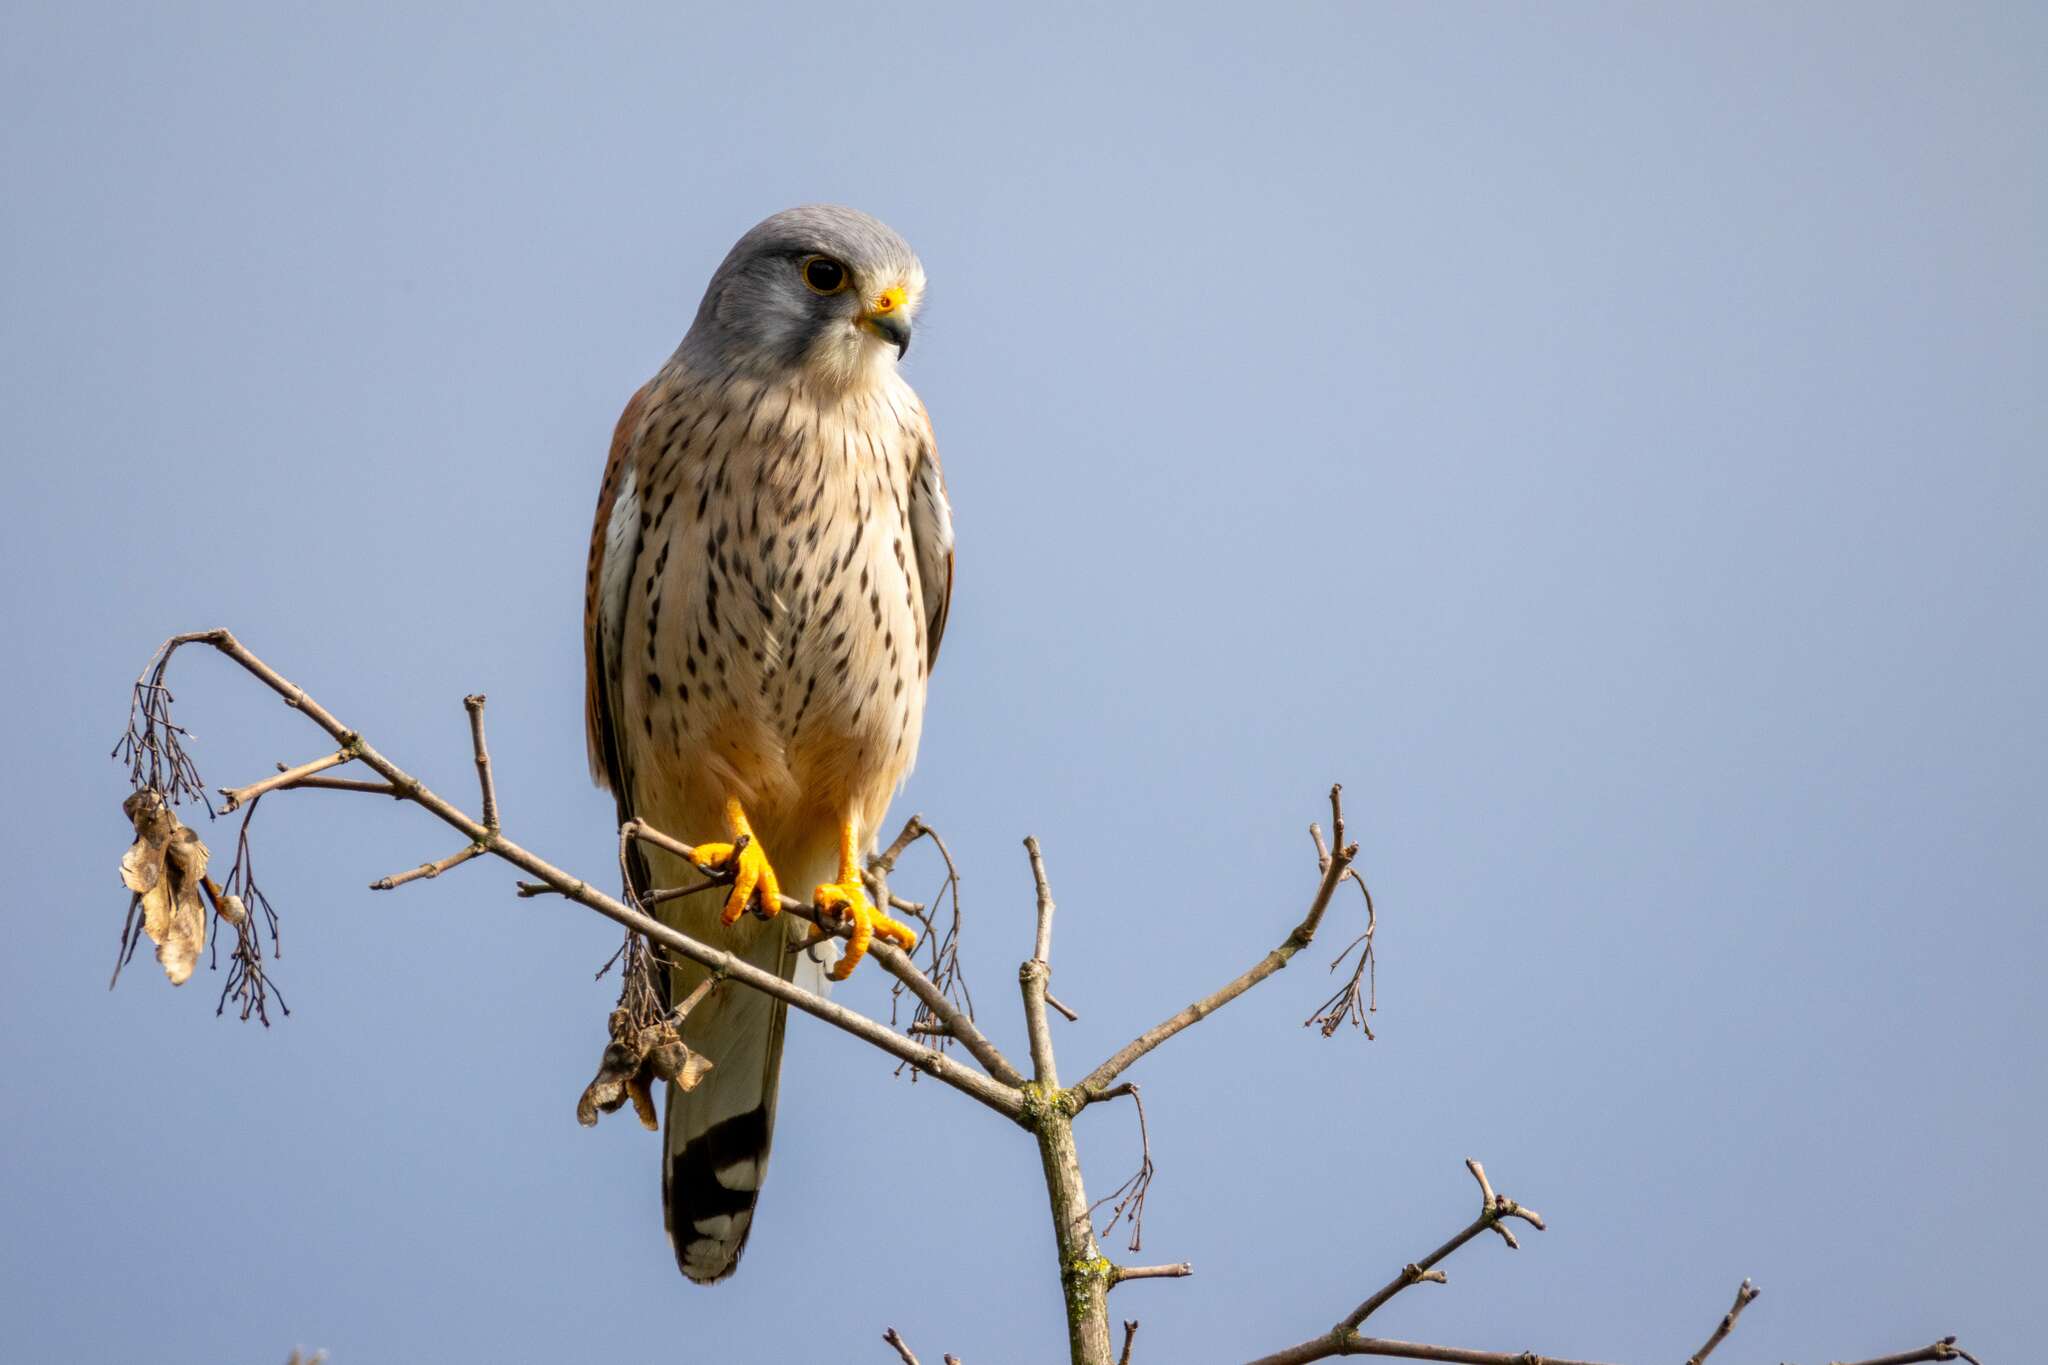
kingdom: Animalia
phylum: Chordata
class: Aves
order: Falconiformes
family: Falconidae
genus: Falco
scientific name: Falco tinnunculus
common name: Common kestrel
